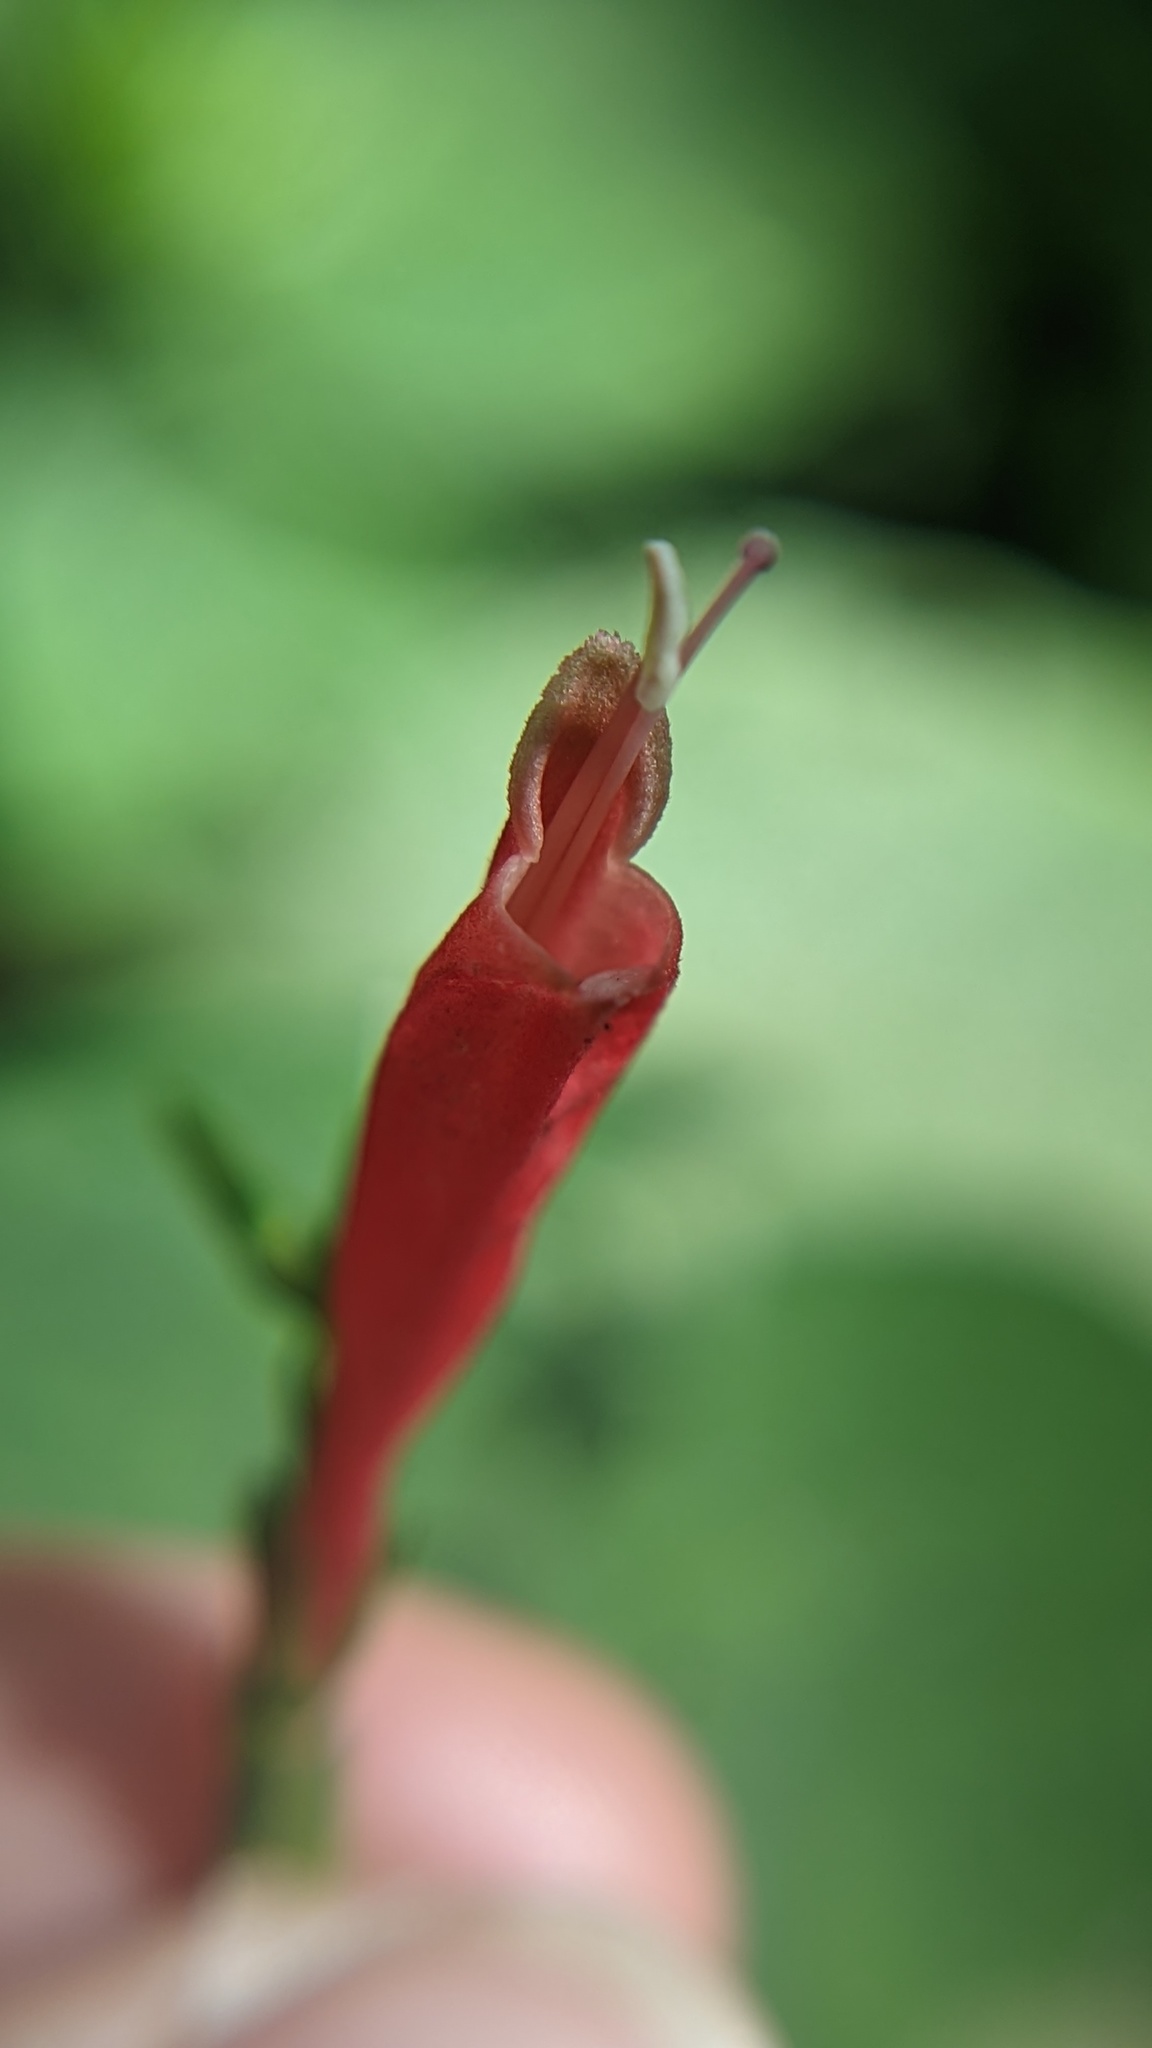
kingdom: Plantae
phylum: Tracheophyta
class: Magnoliopsida
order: Lamiales
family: Acanthaceae
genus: Stenostephanus
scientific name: Stenostephanus leiorhachis
